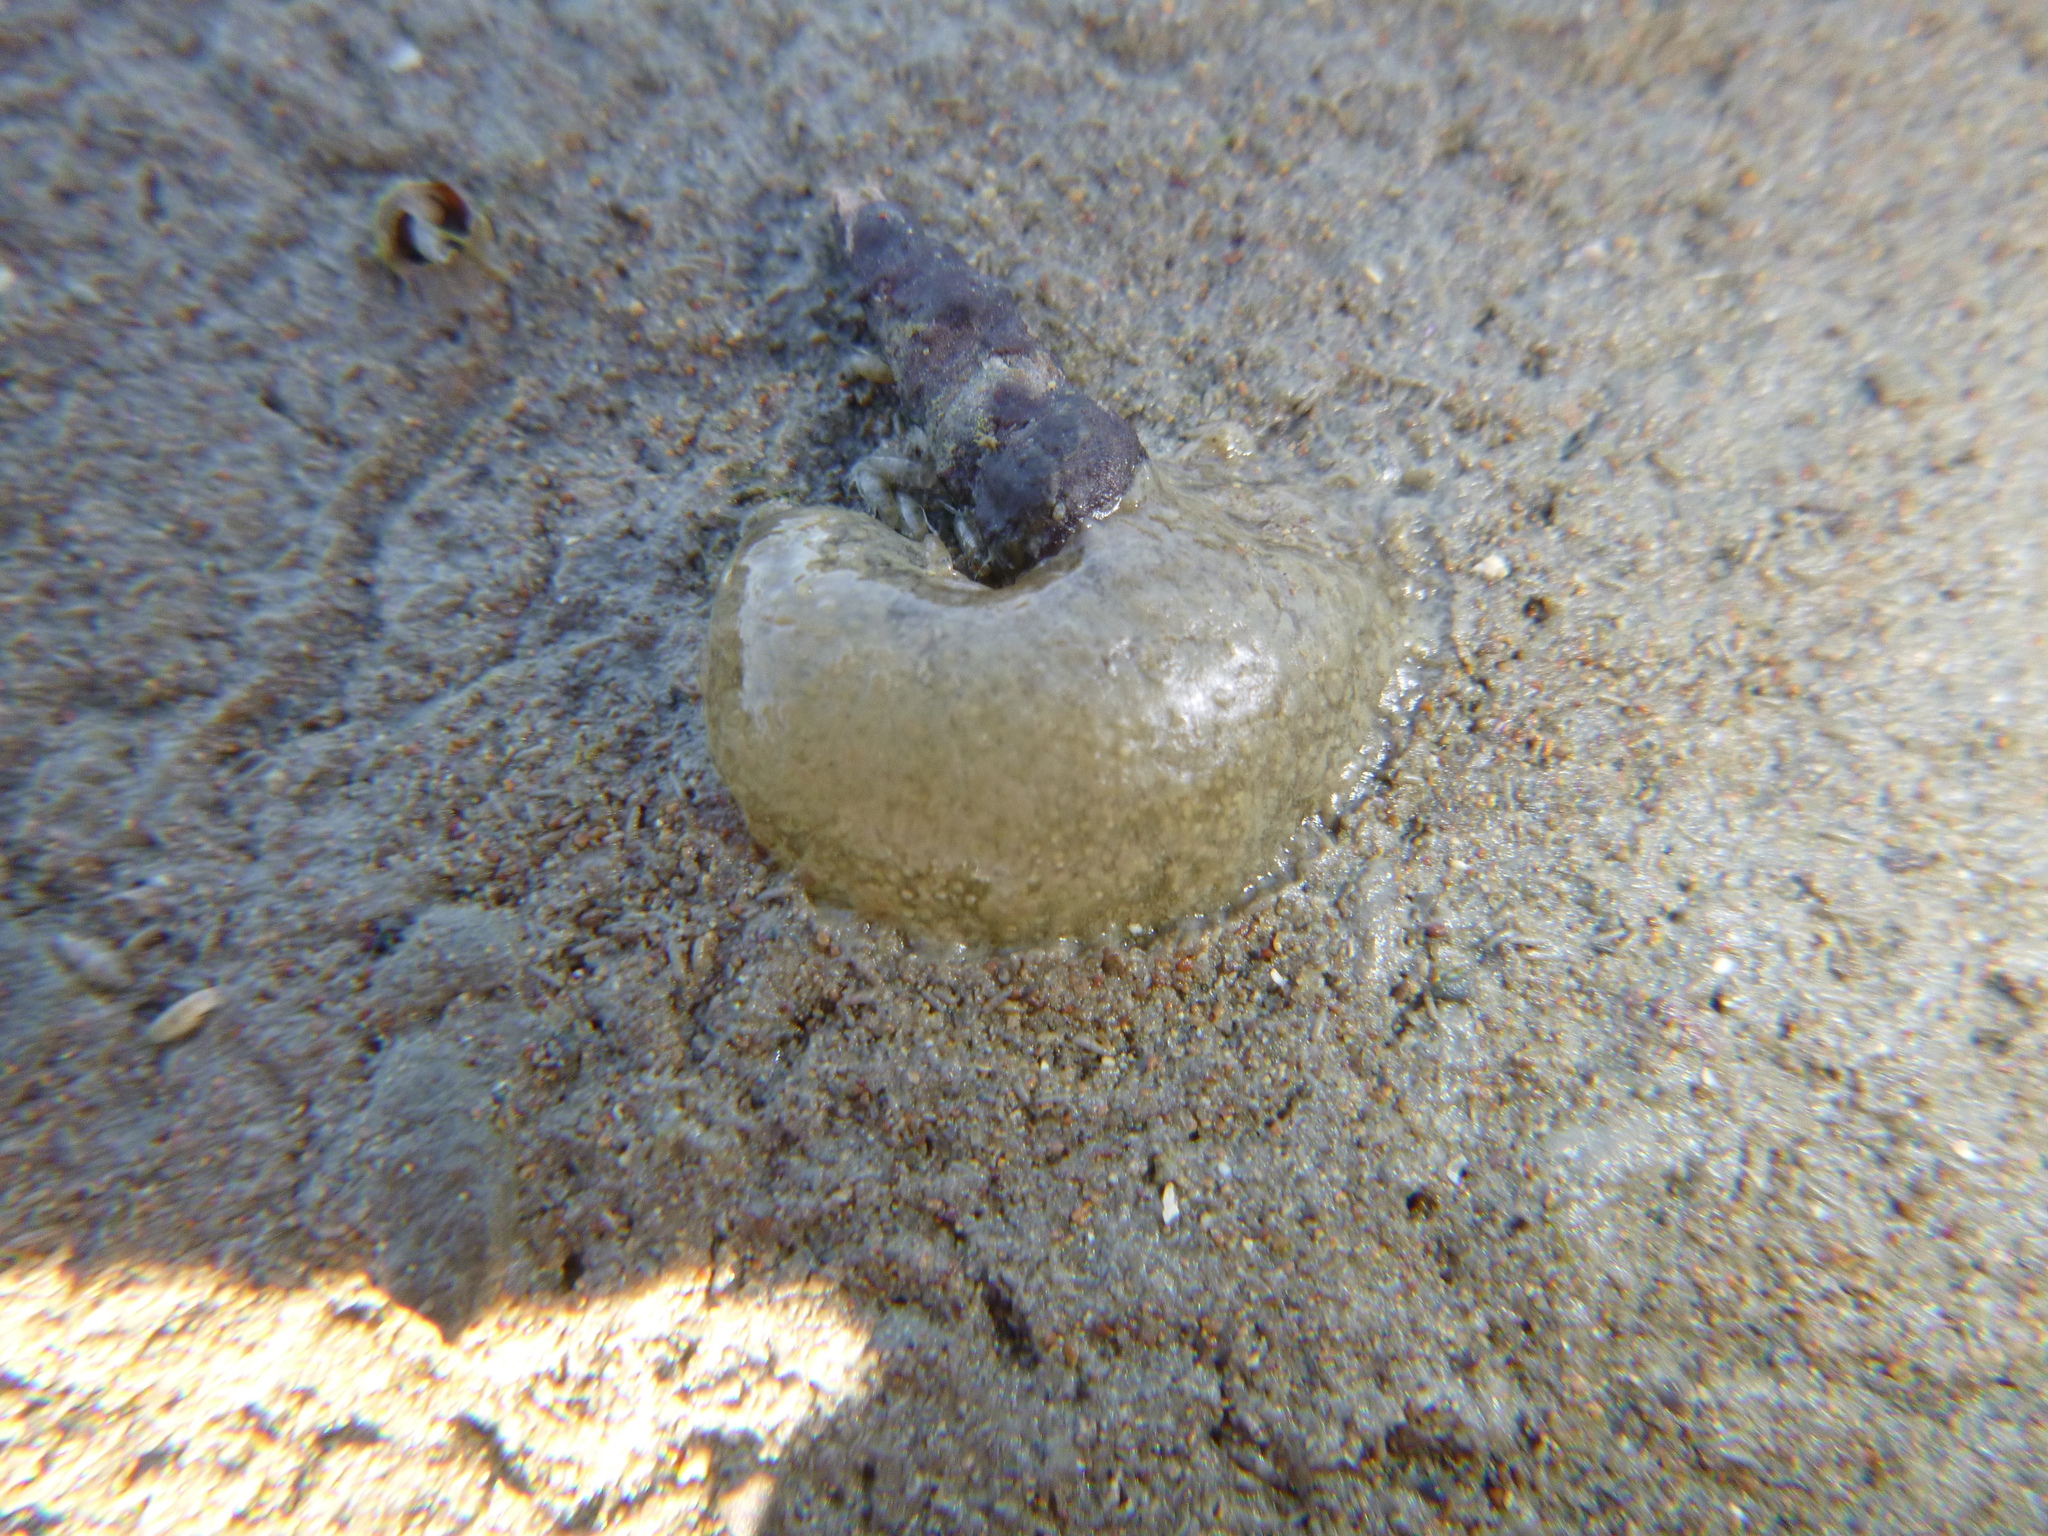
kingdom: Animalia
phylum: Mollusca
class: Gastropoda
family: Batillariidae
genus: Zeacumantus
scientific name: Zeacumantus lutulentus
